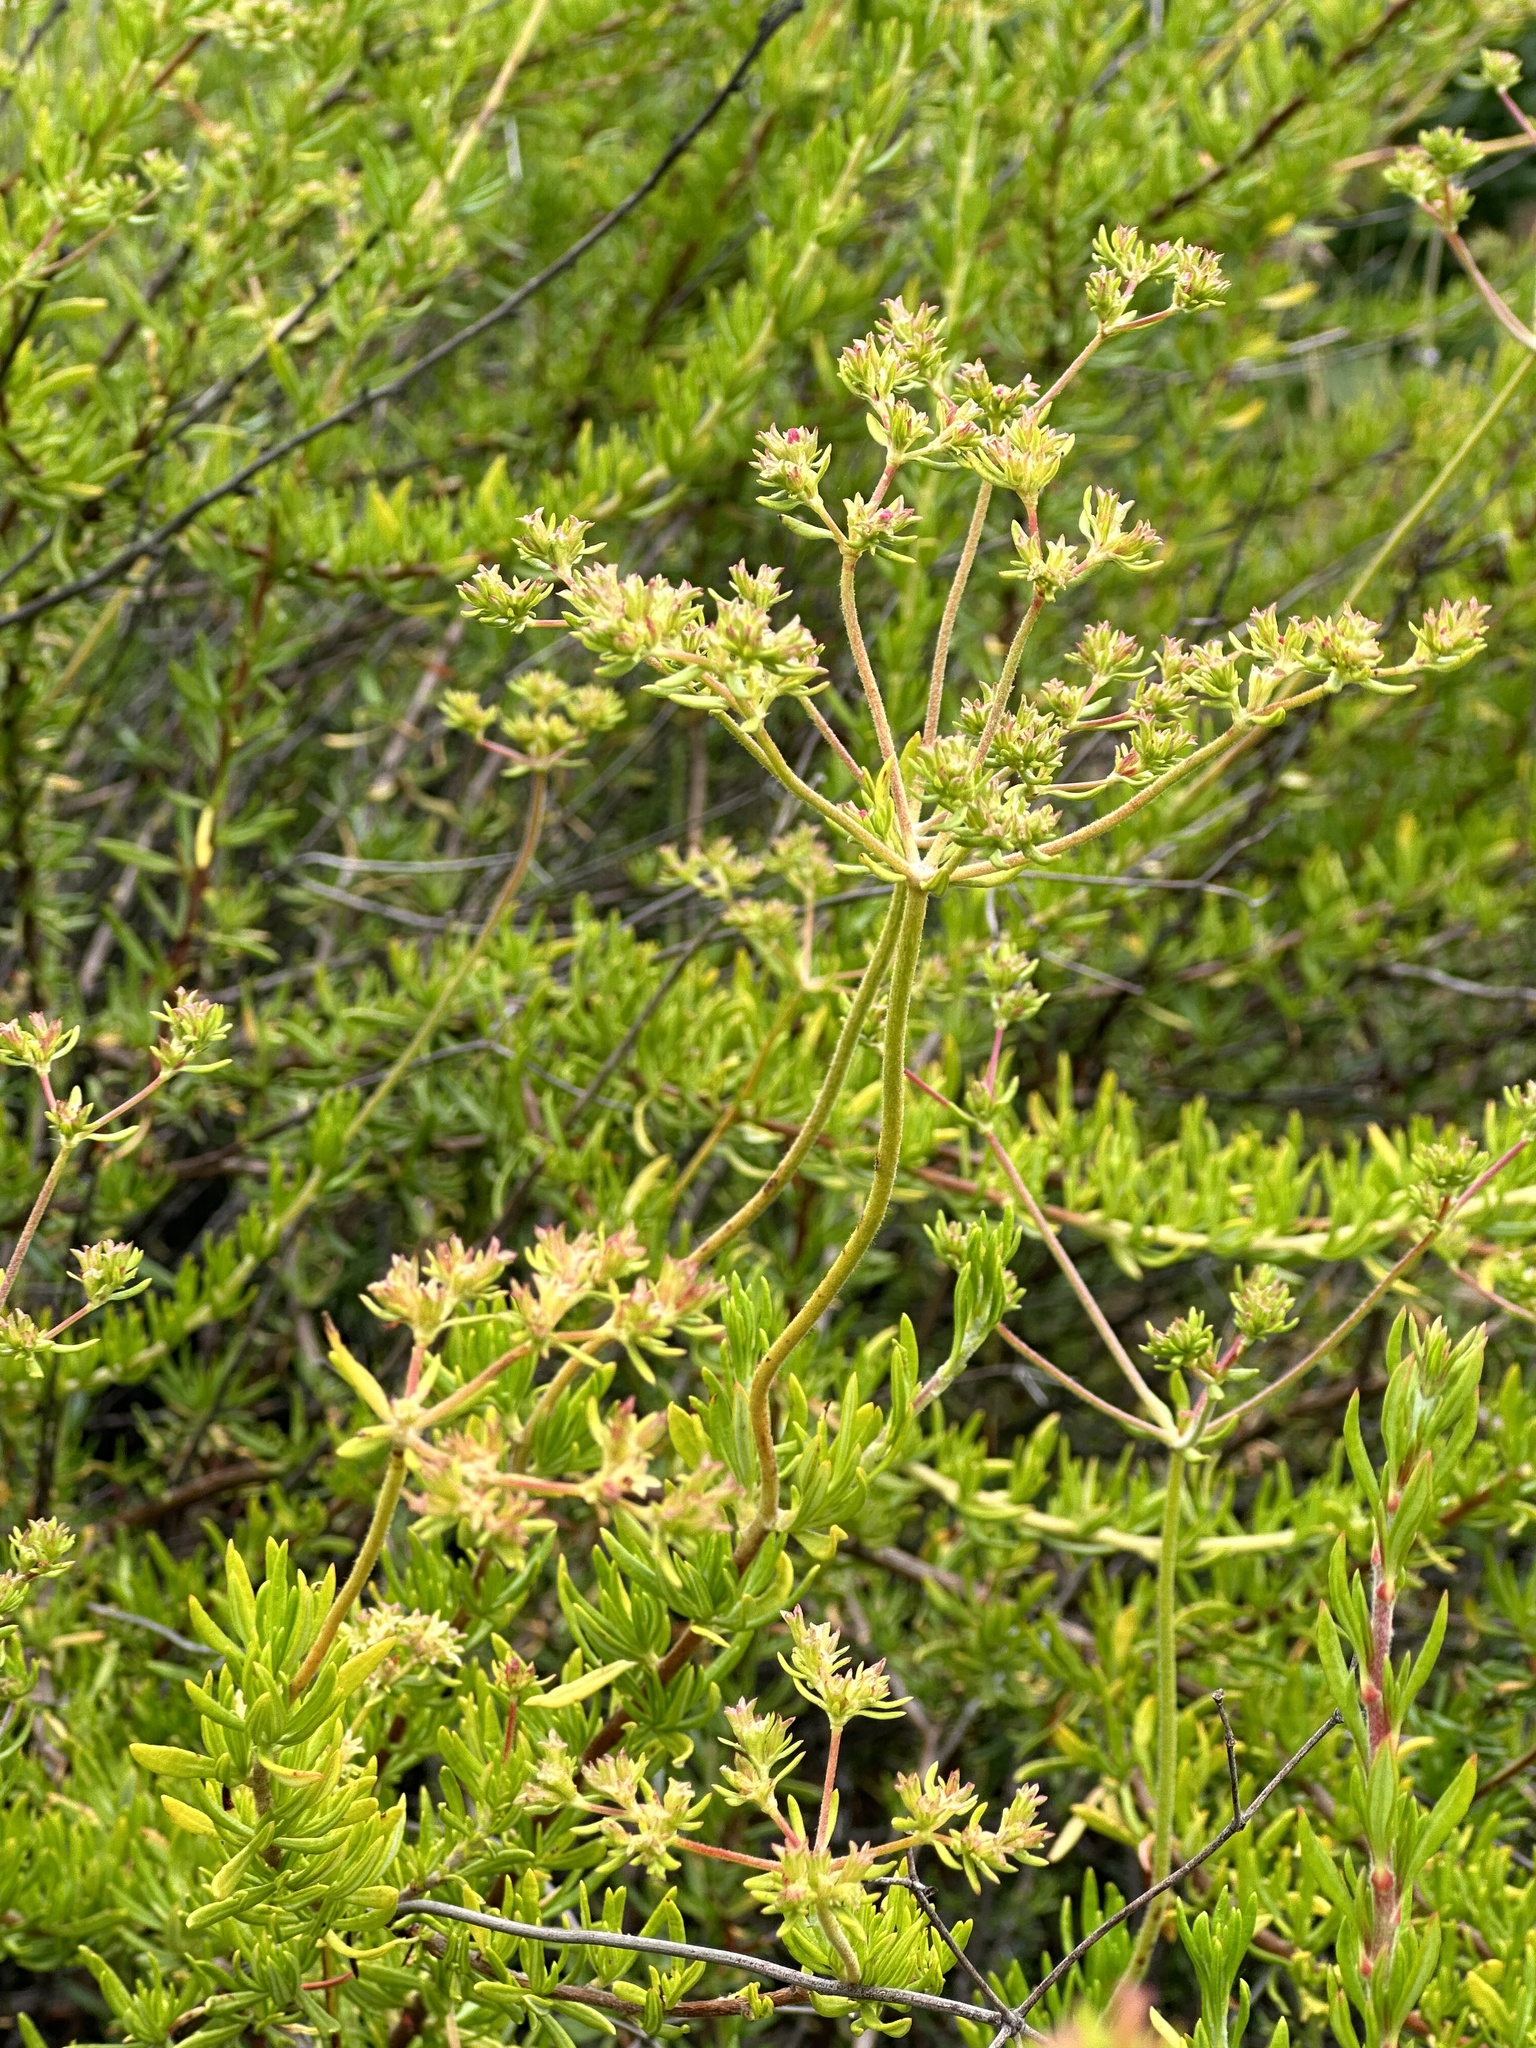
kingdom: Plantae
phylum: Tracheophyta
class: Magnoliopsida
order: Caryophyllales
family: Polygonaceae
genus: Eriogonum
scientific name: Eriogonum fasciculatum
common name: California wild buckwheat
